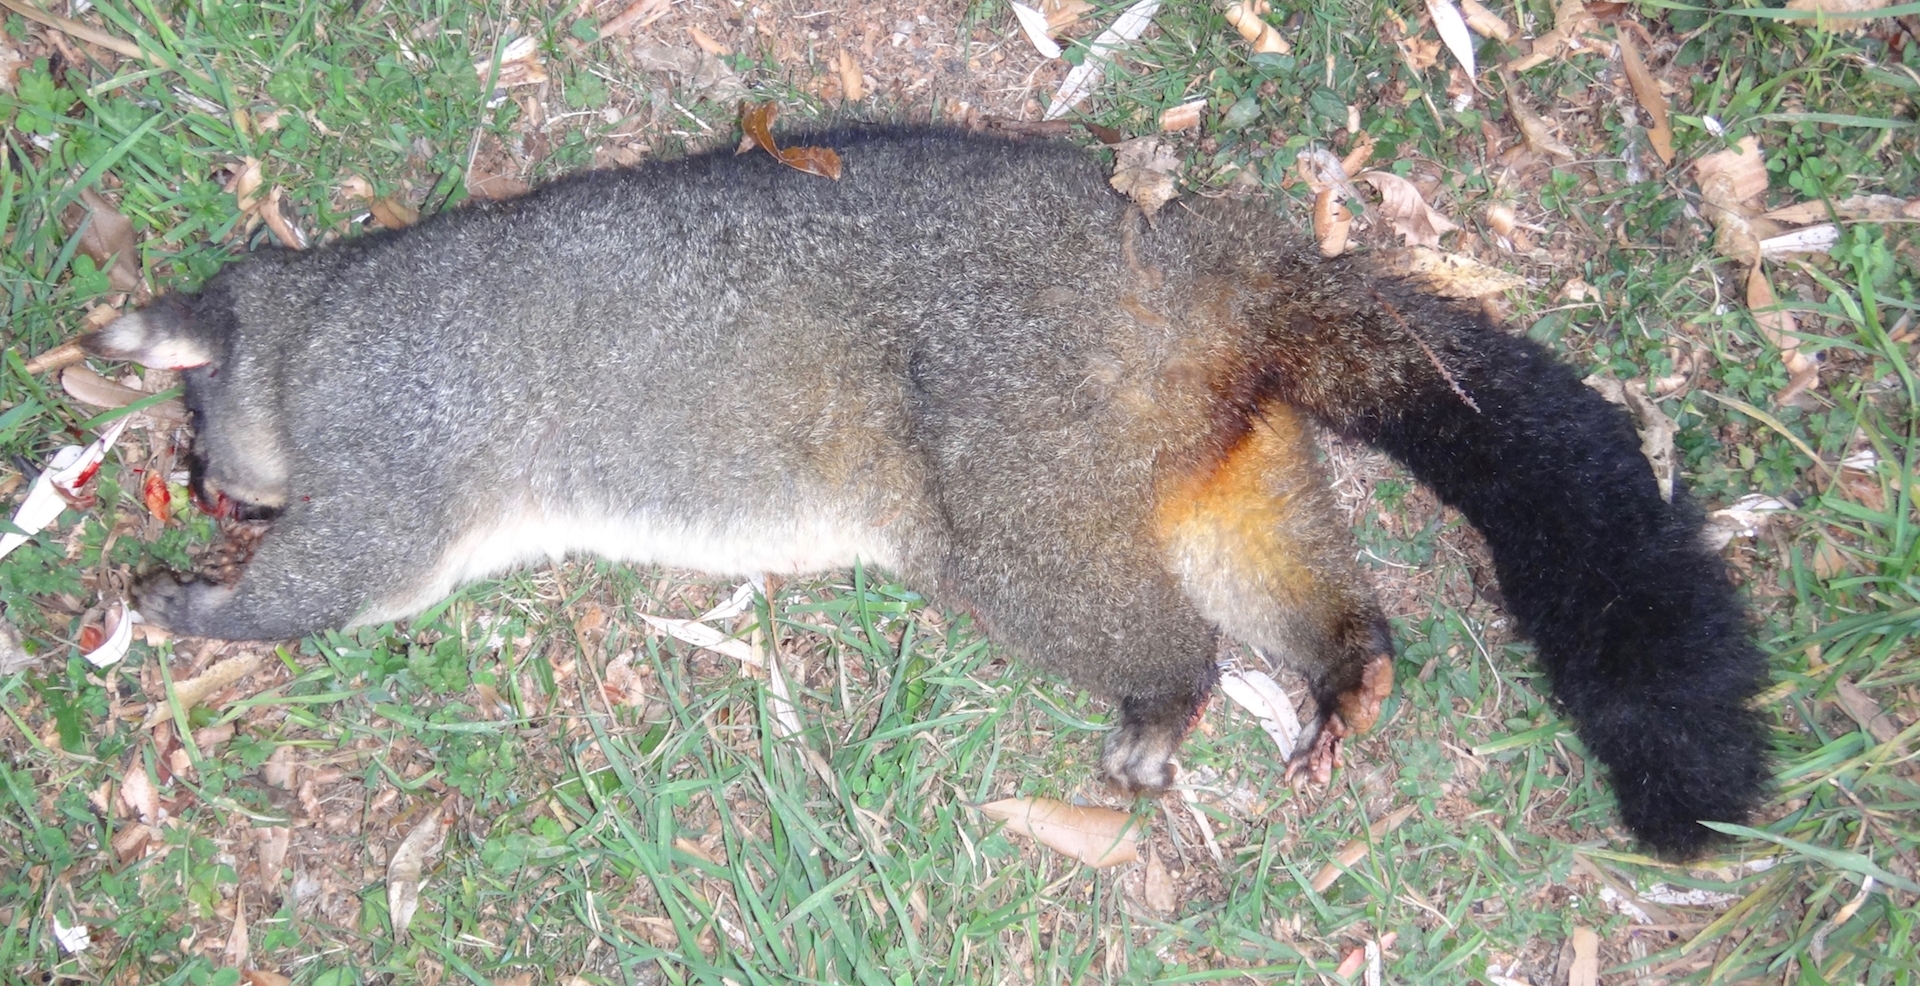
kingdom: Animalia
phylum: Chordata
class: Mammalia
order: Diprotodontia
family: Phalangeridae
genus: Trichosurus
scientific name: Trichosurus vulpecula
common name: Common brushtail
